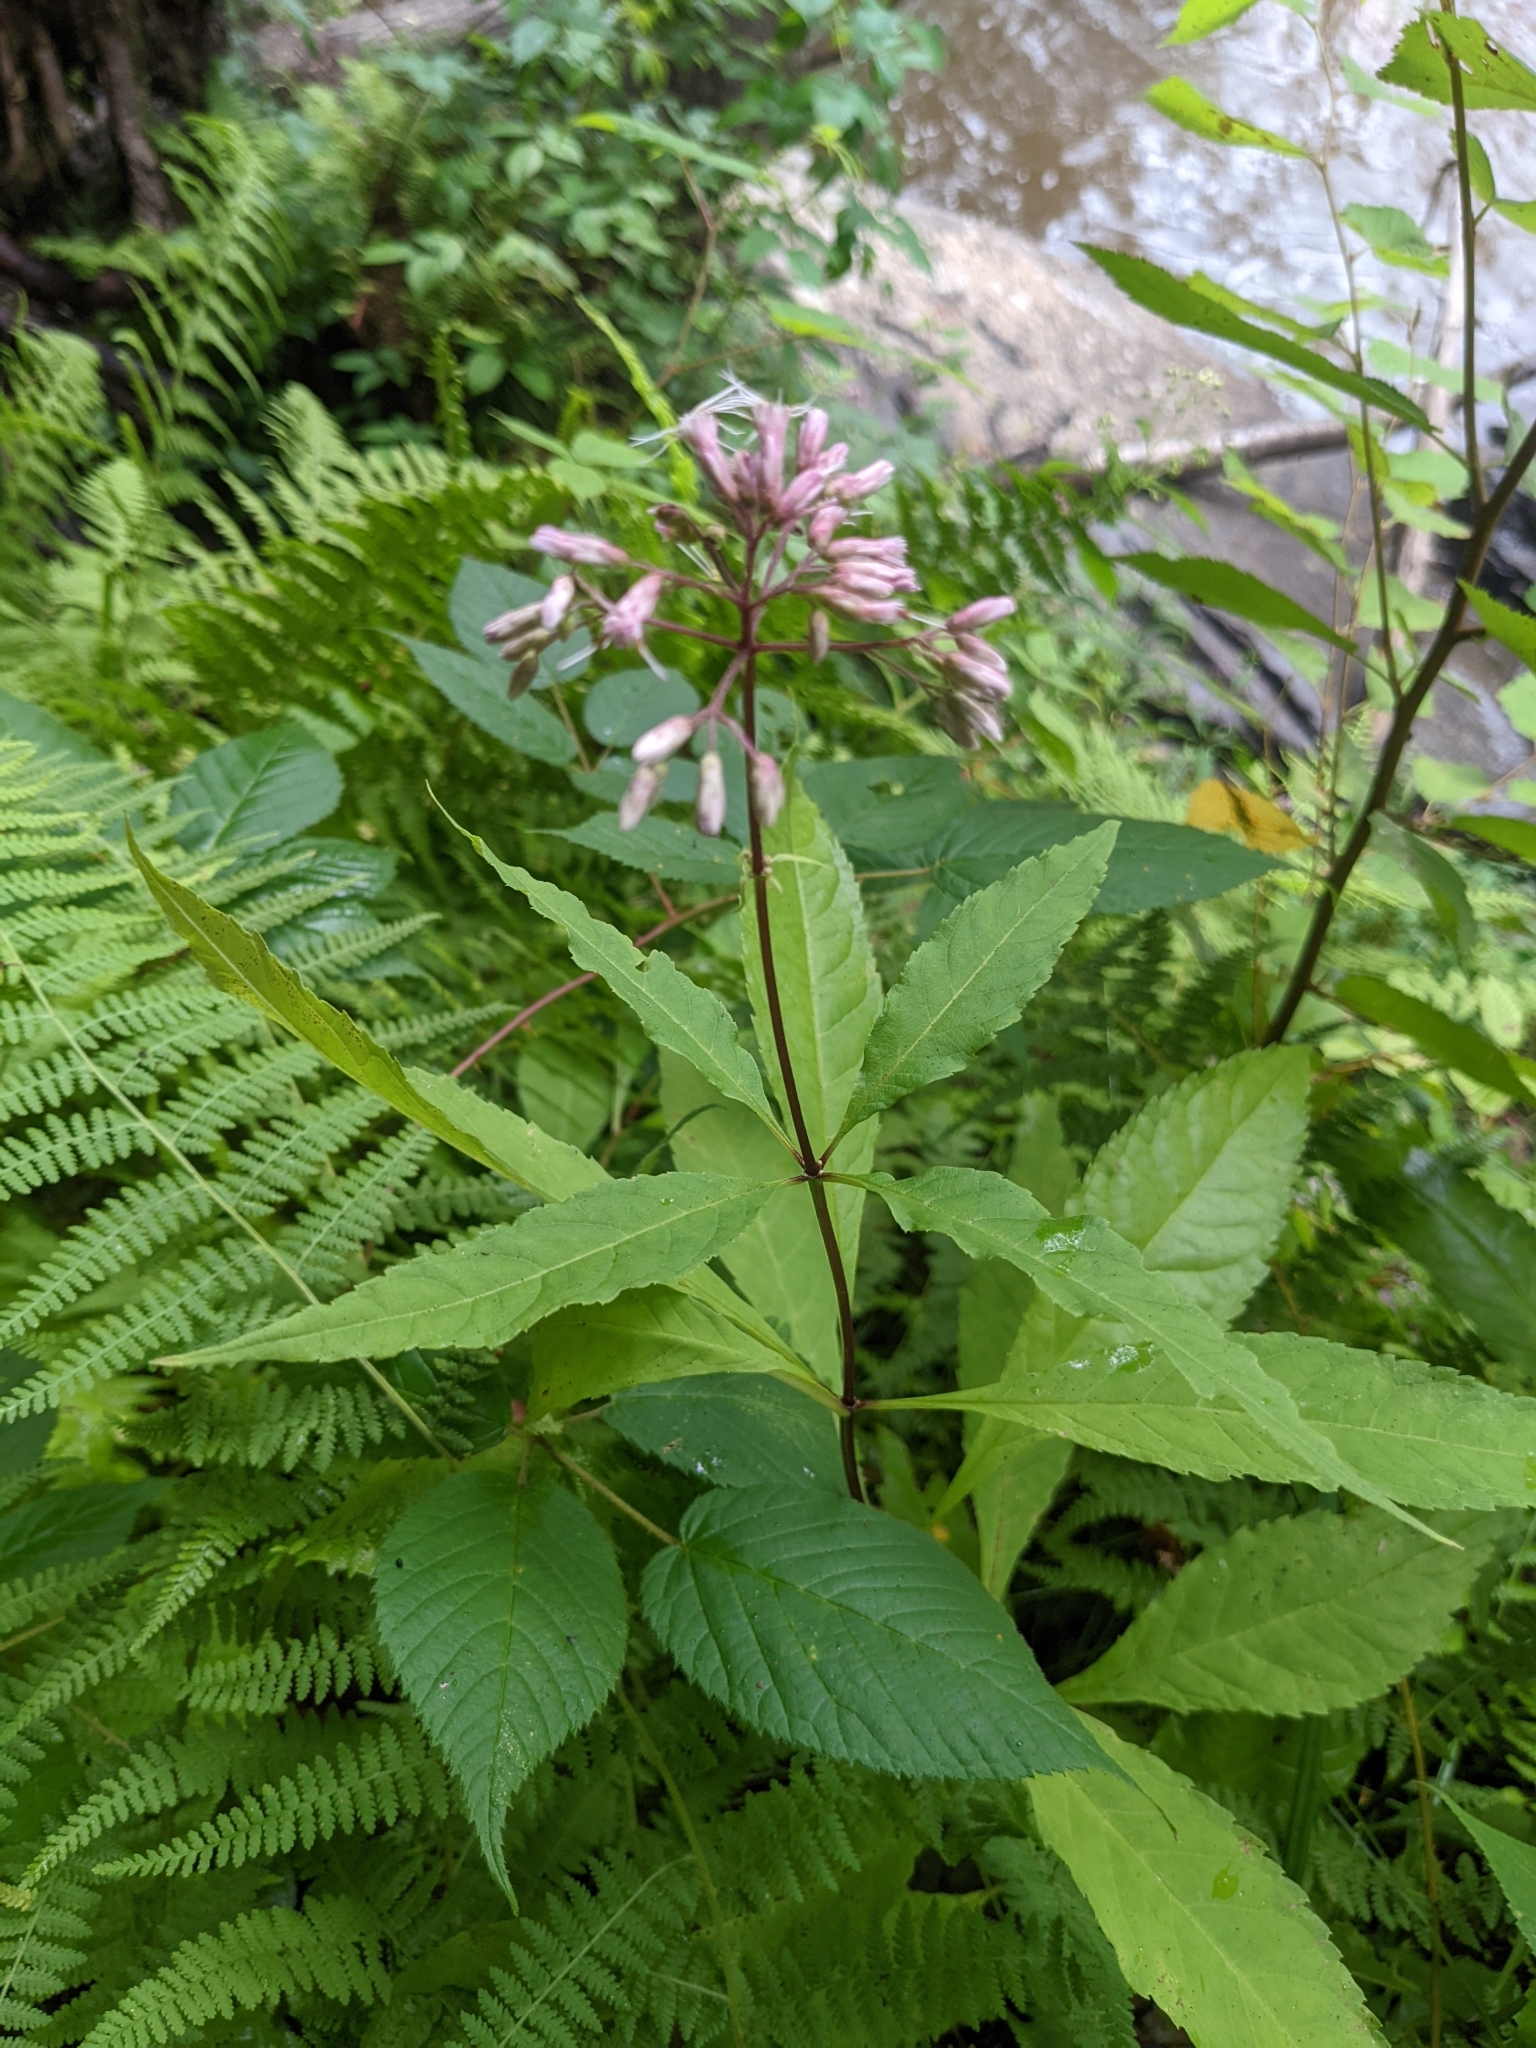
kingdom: Plantae
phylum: Tracheophyta
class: Magnoliopsida
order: Asterales
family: Asteraceae
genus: Eutrochium
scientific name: Eutrochium purpureum
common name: Gravelroot
